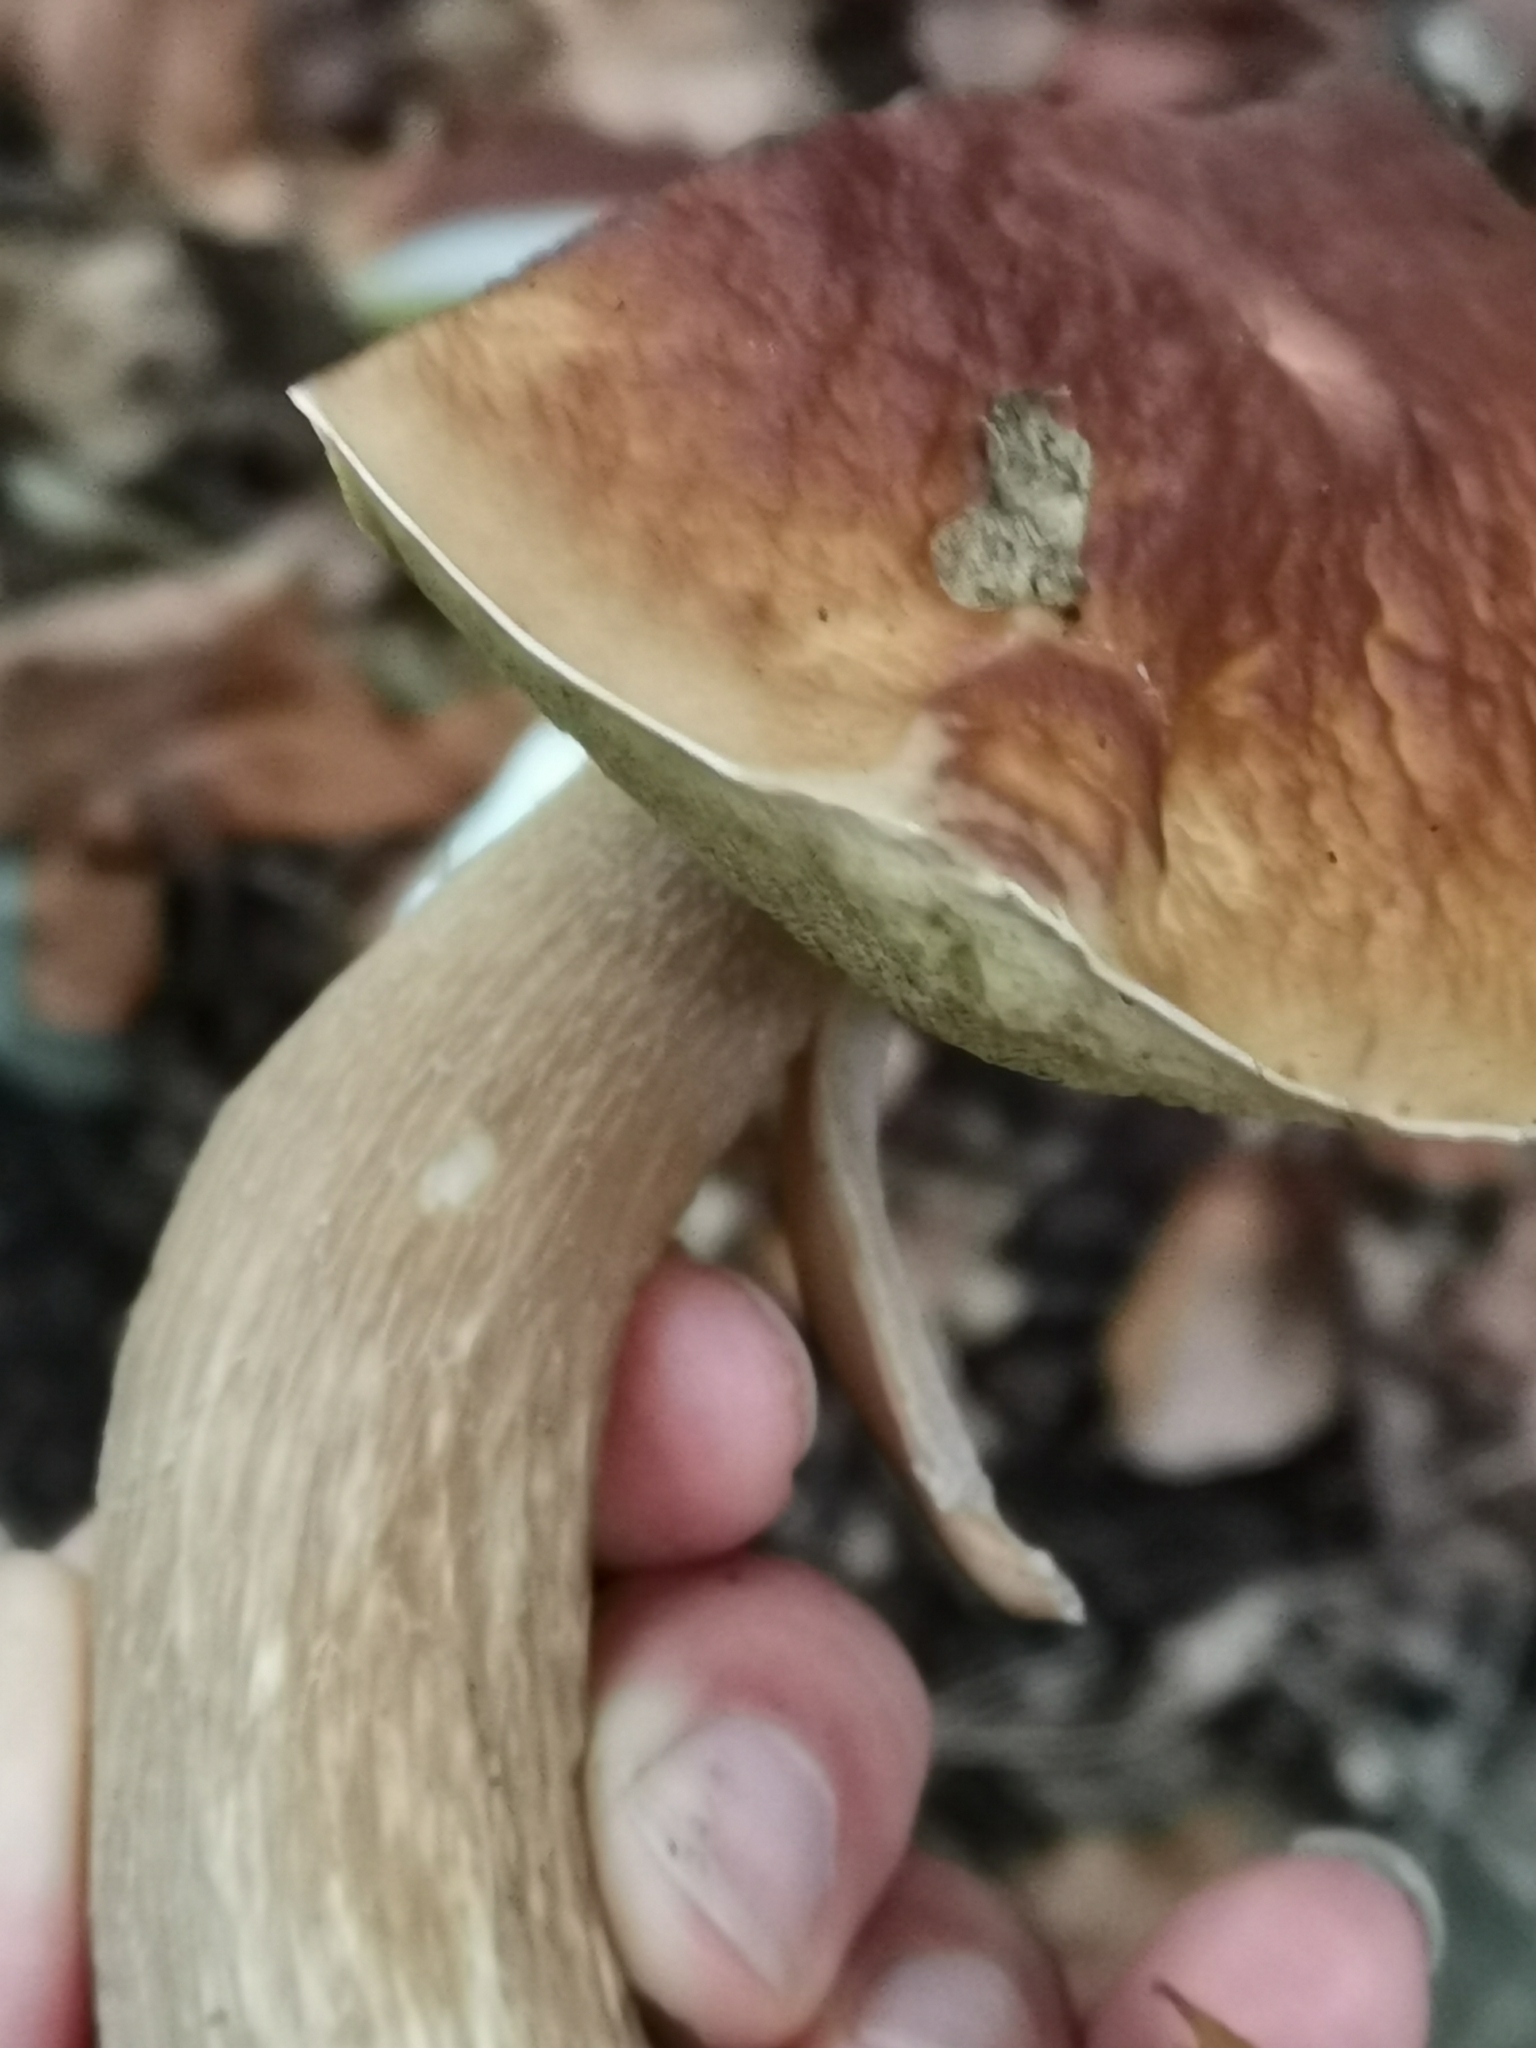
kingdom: Fungi
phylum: Basidiomycota
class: Agaricomycetes
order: Boletales
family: Boletaceae
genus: Boletus
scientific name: Boletus edulis
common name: Cep
